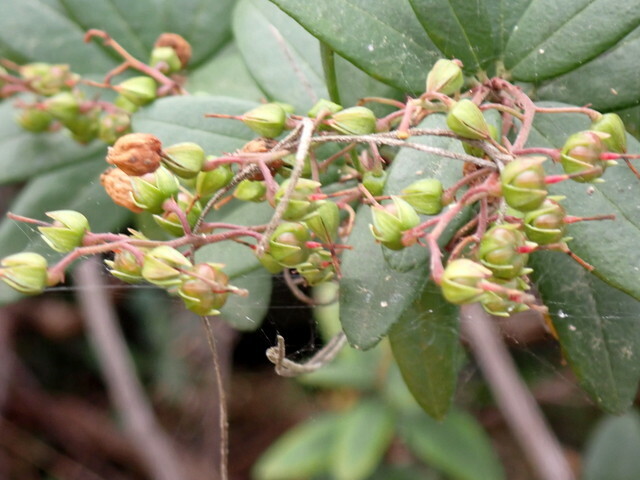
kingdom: Plantae
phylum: Tracheophyta
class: Magnoliopsida
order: Ericales
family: Ericaceae
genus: Pieris
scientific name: Pieris phillyreifolia
